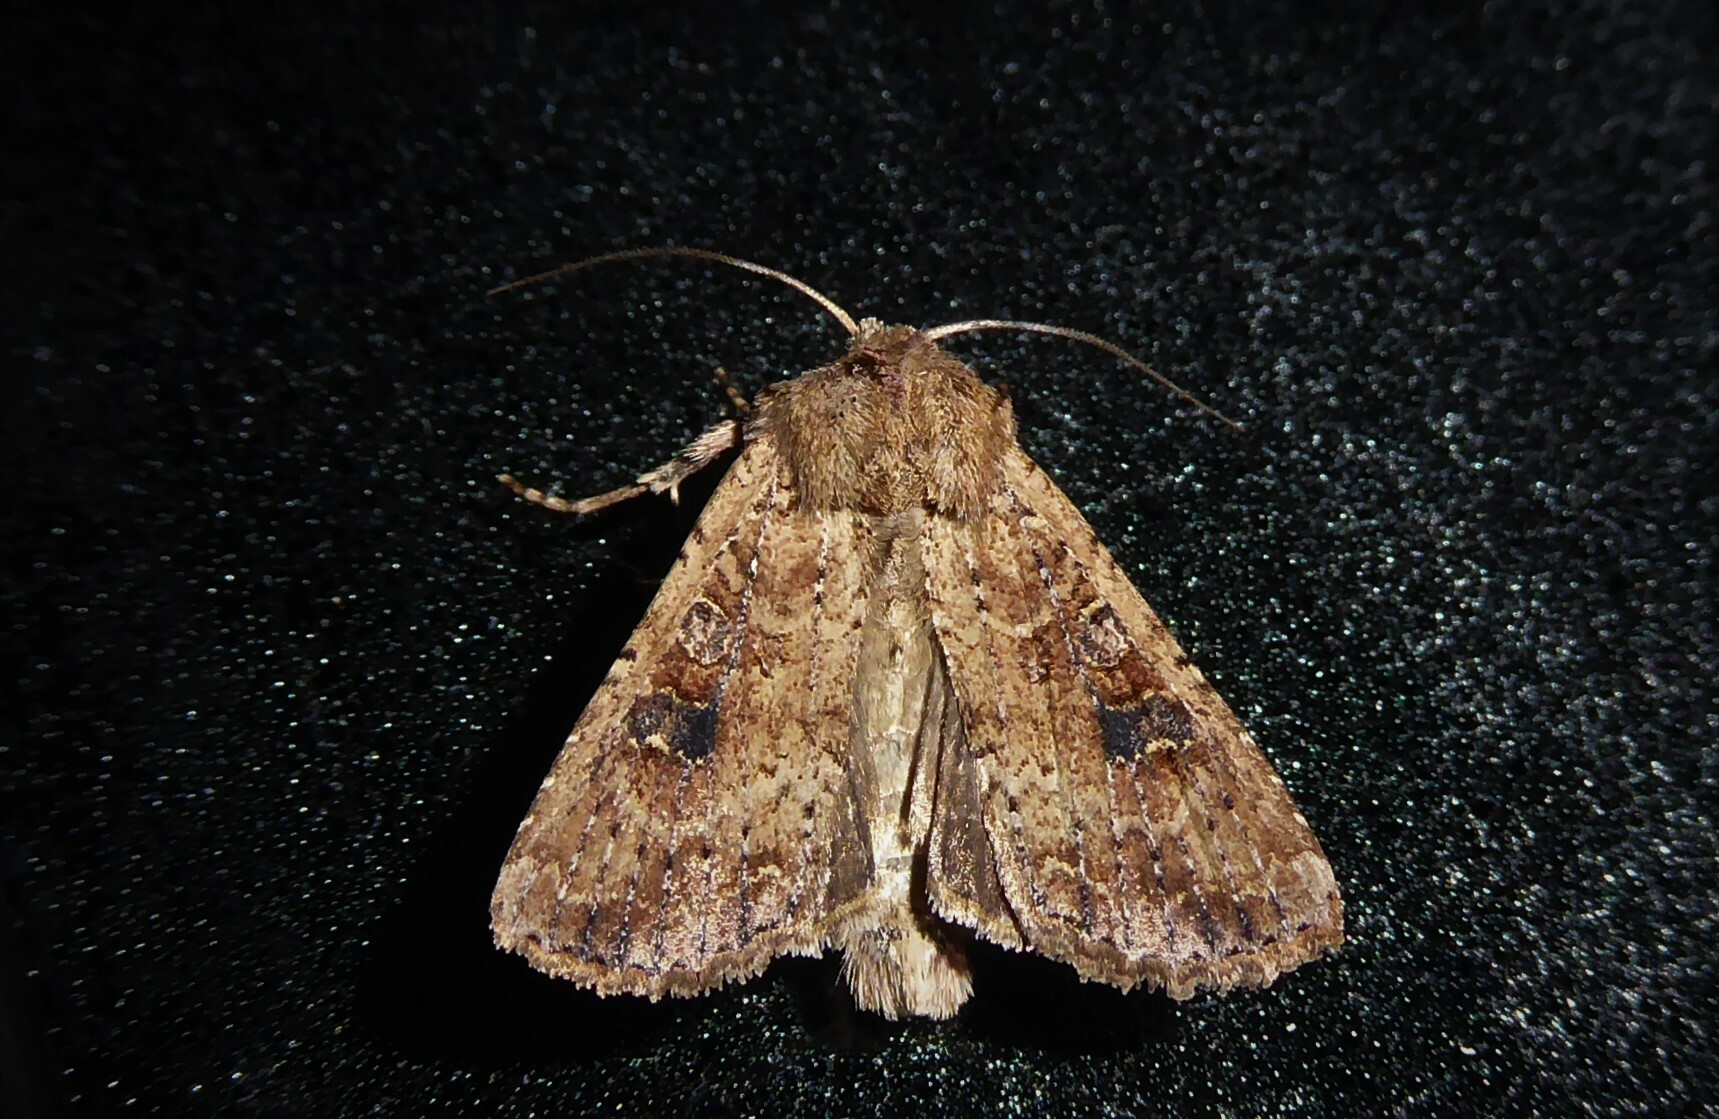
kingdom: Animalia
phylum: Arthropoda
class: Insecta
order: Lepidoptera
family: Noctuidae
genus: Ichneutica
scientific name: Ichneutica morosa
